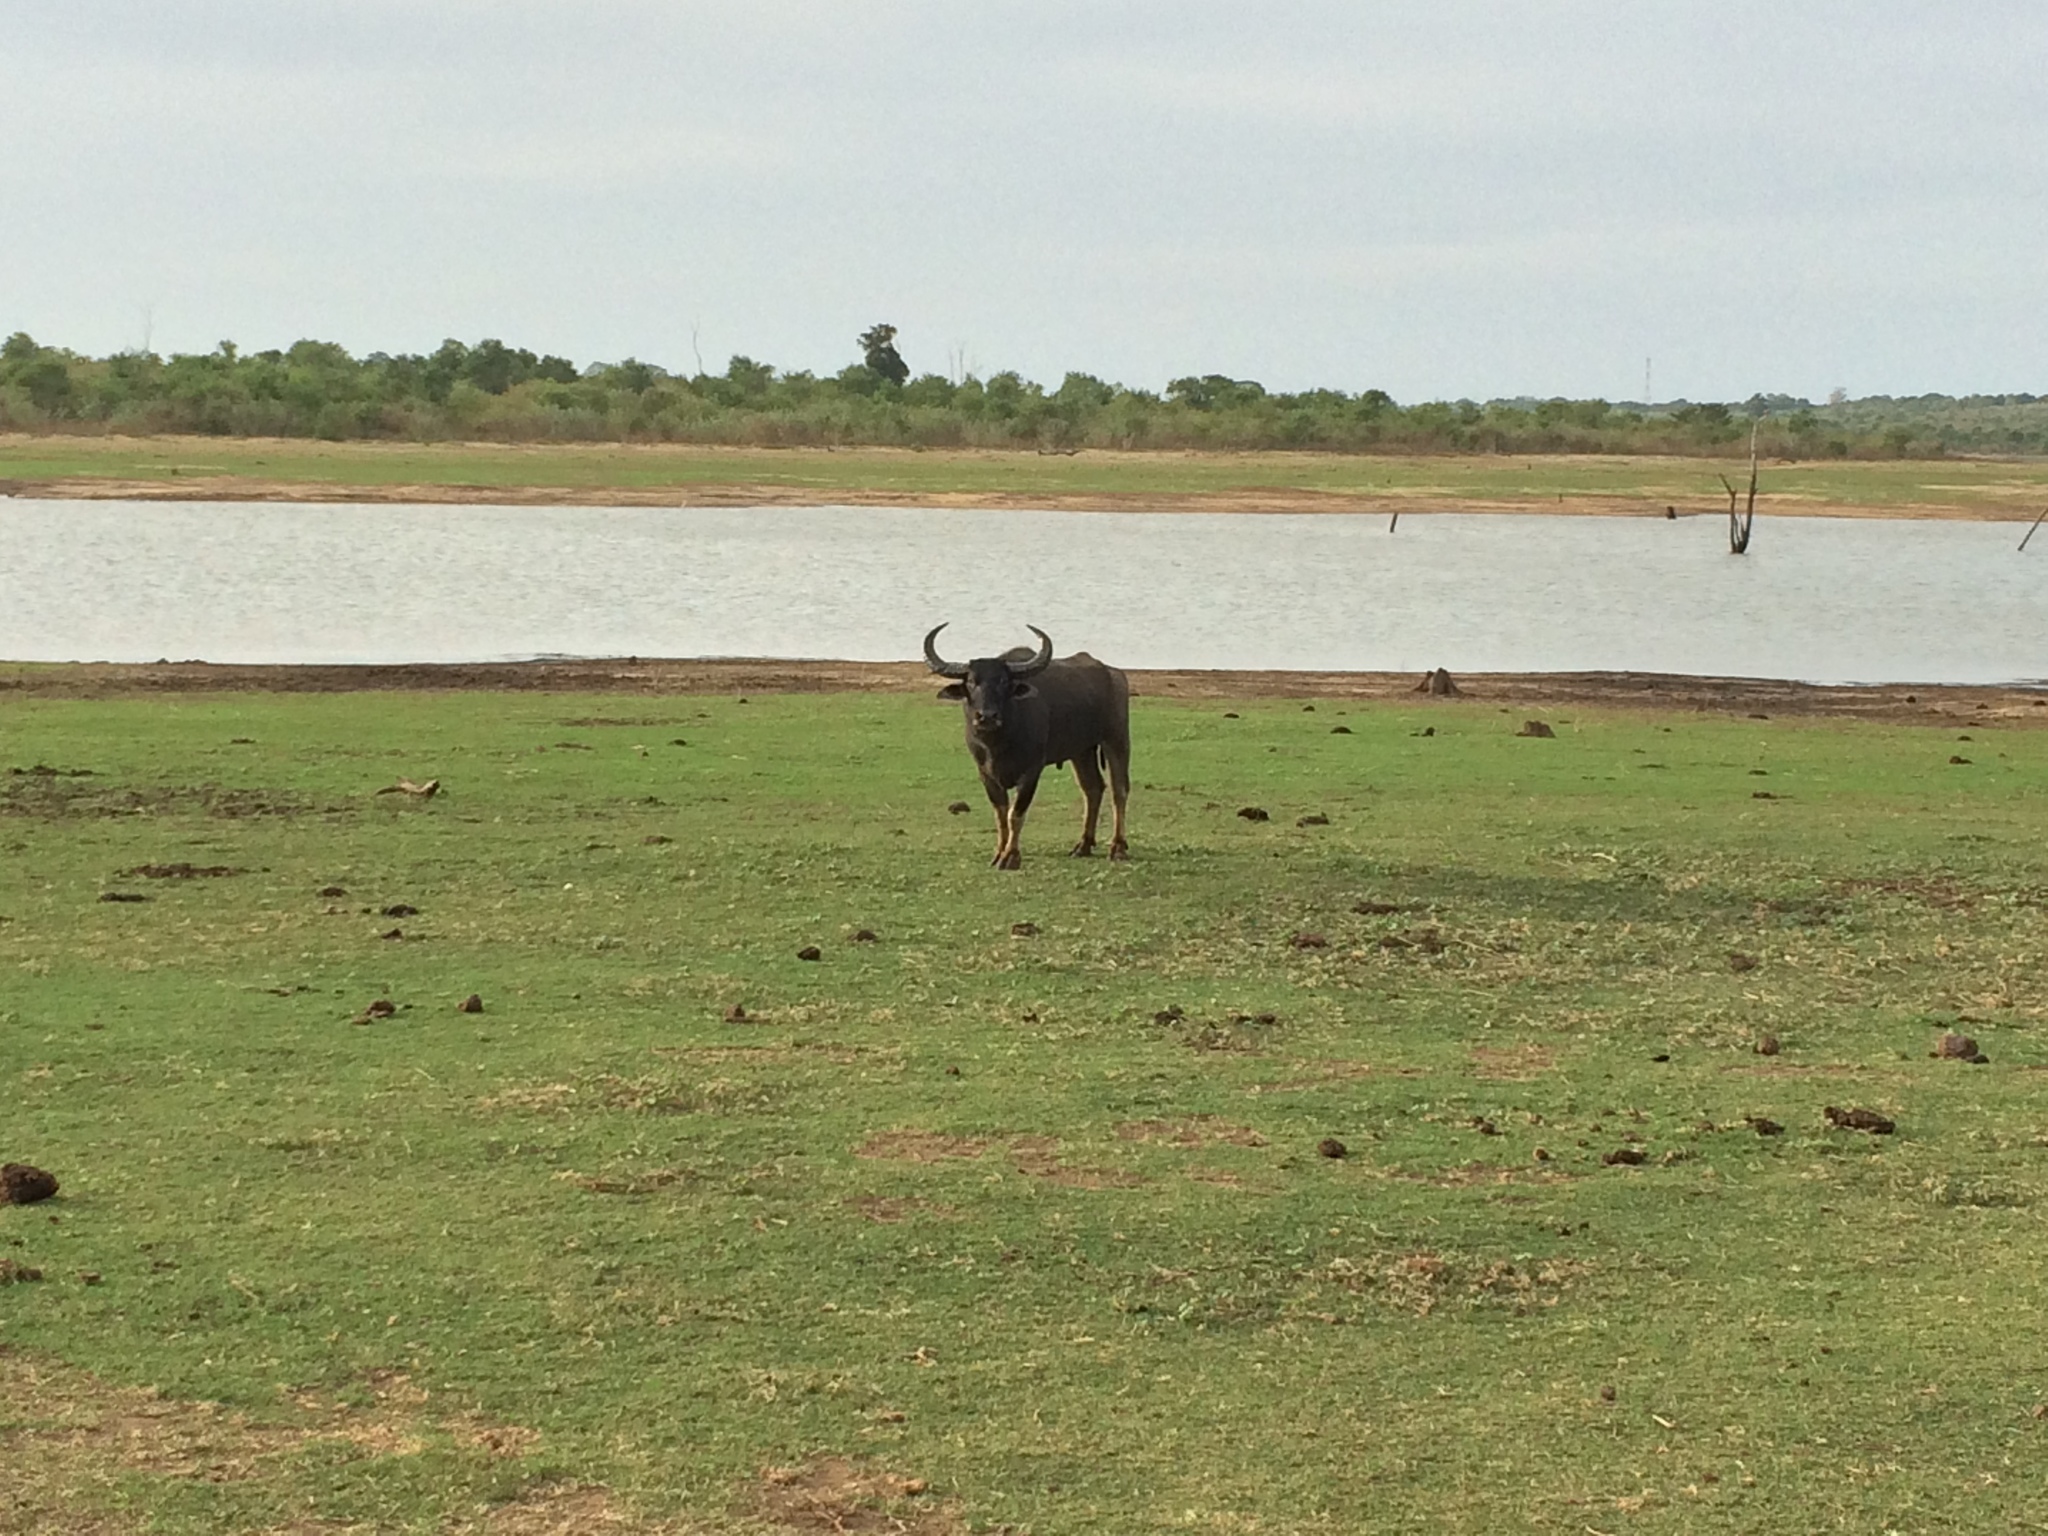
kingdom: Animalia
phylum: Chordata
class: Mammalia
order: Artiodactyla
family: Bovidae
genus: Bubalus
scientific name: Bubalus bubalis
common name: Water buffalo
